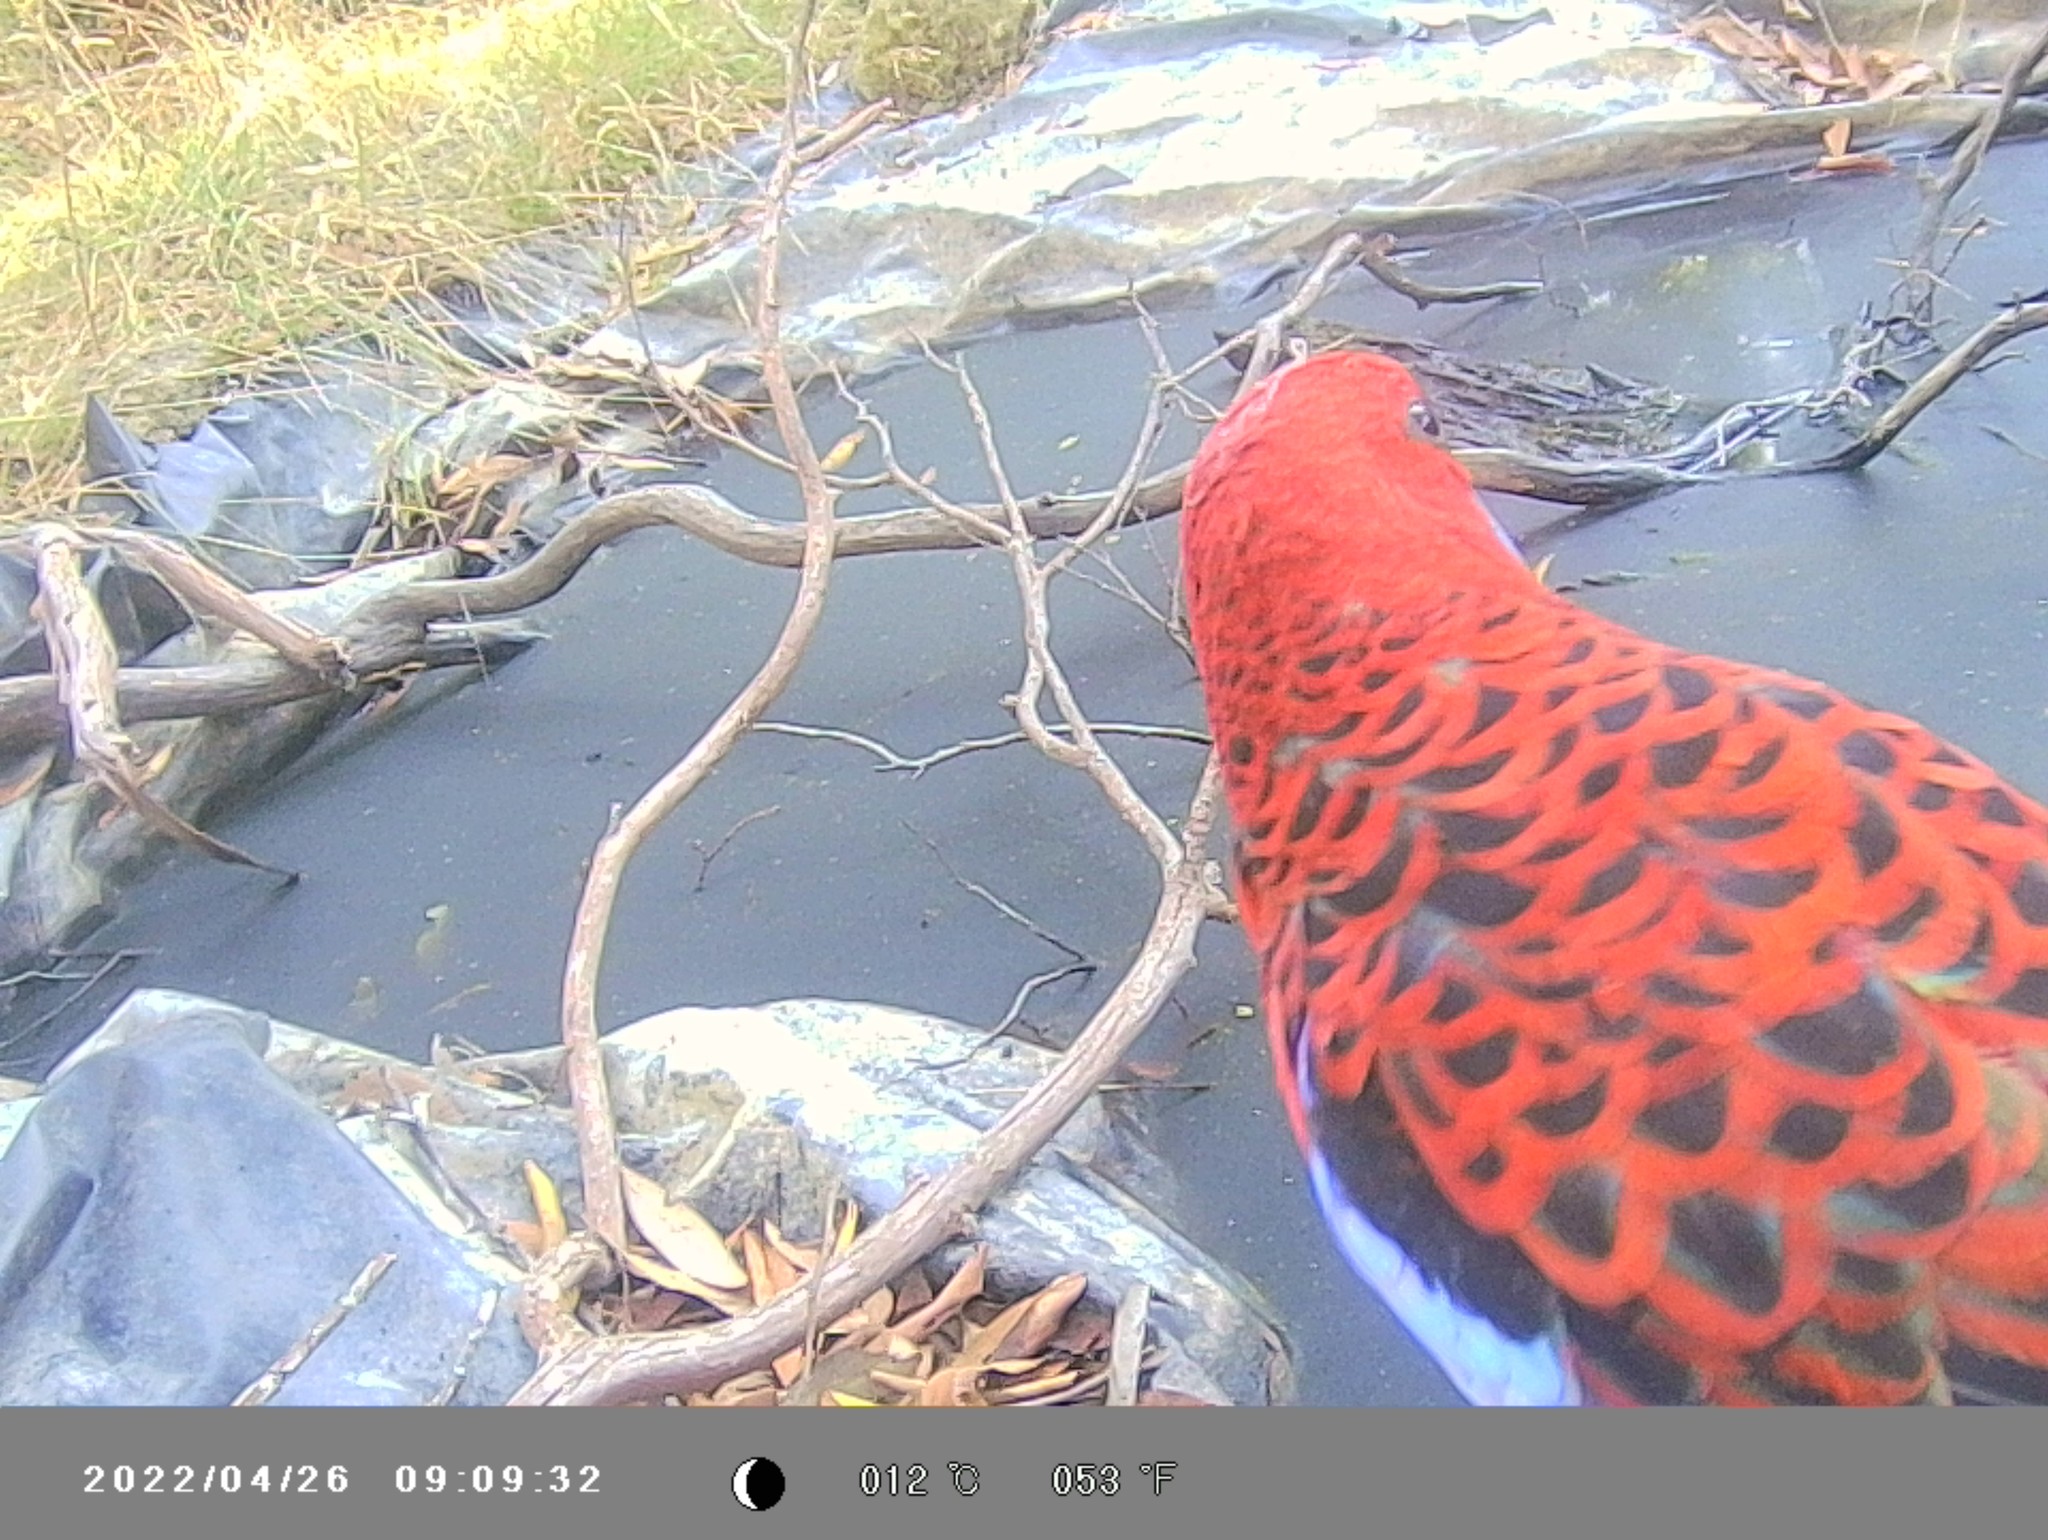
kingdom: Animalia
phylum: Chordata
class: Aves
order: Psittaciformes
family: Psittacidae
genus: Platycercus
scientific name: Platycercus elegans
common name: Crimson rosella
